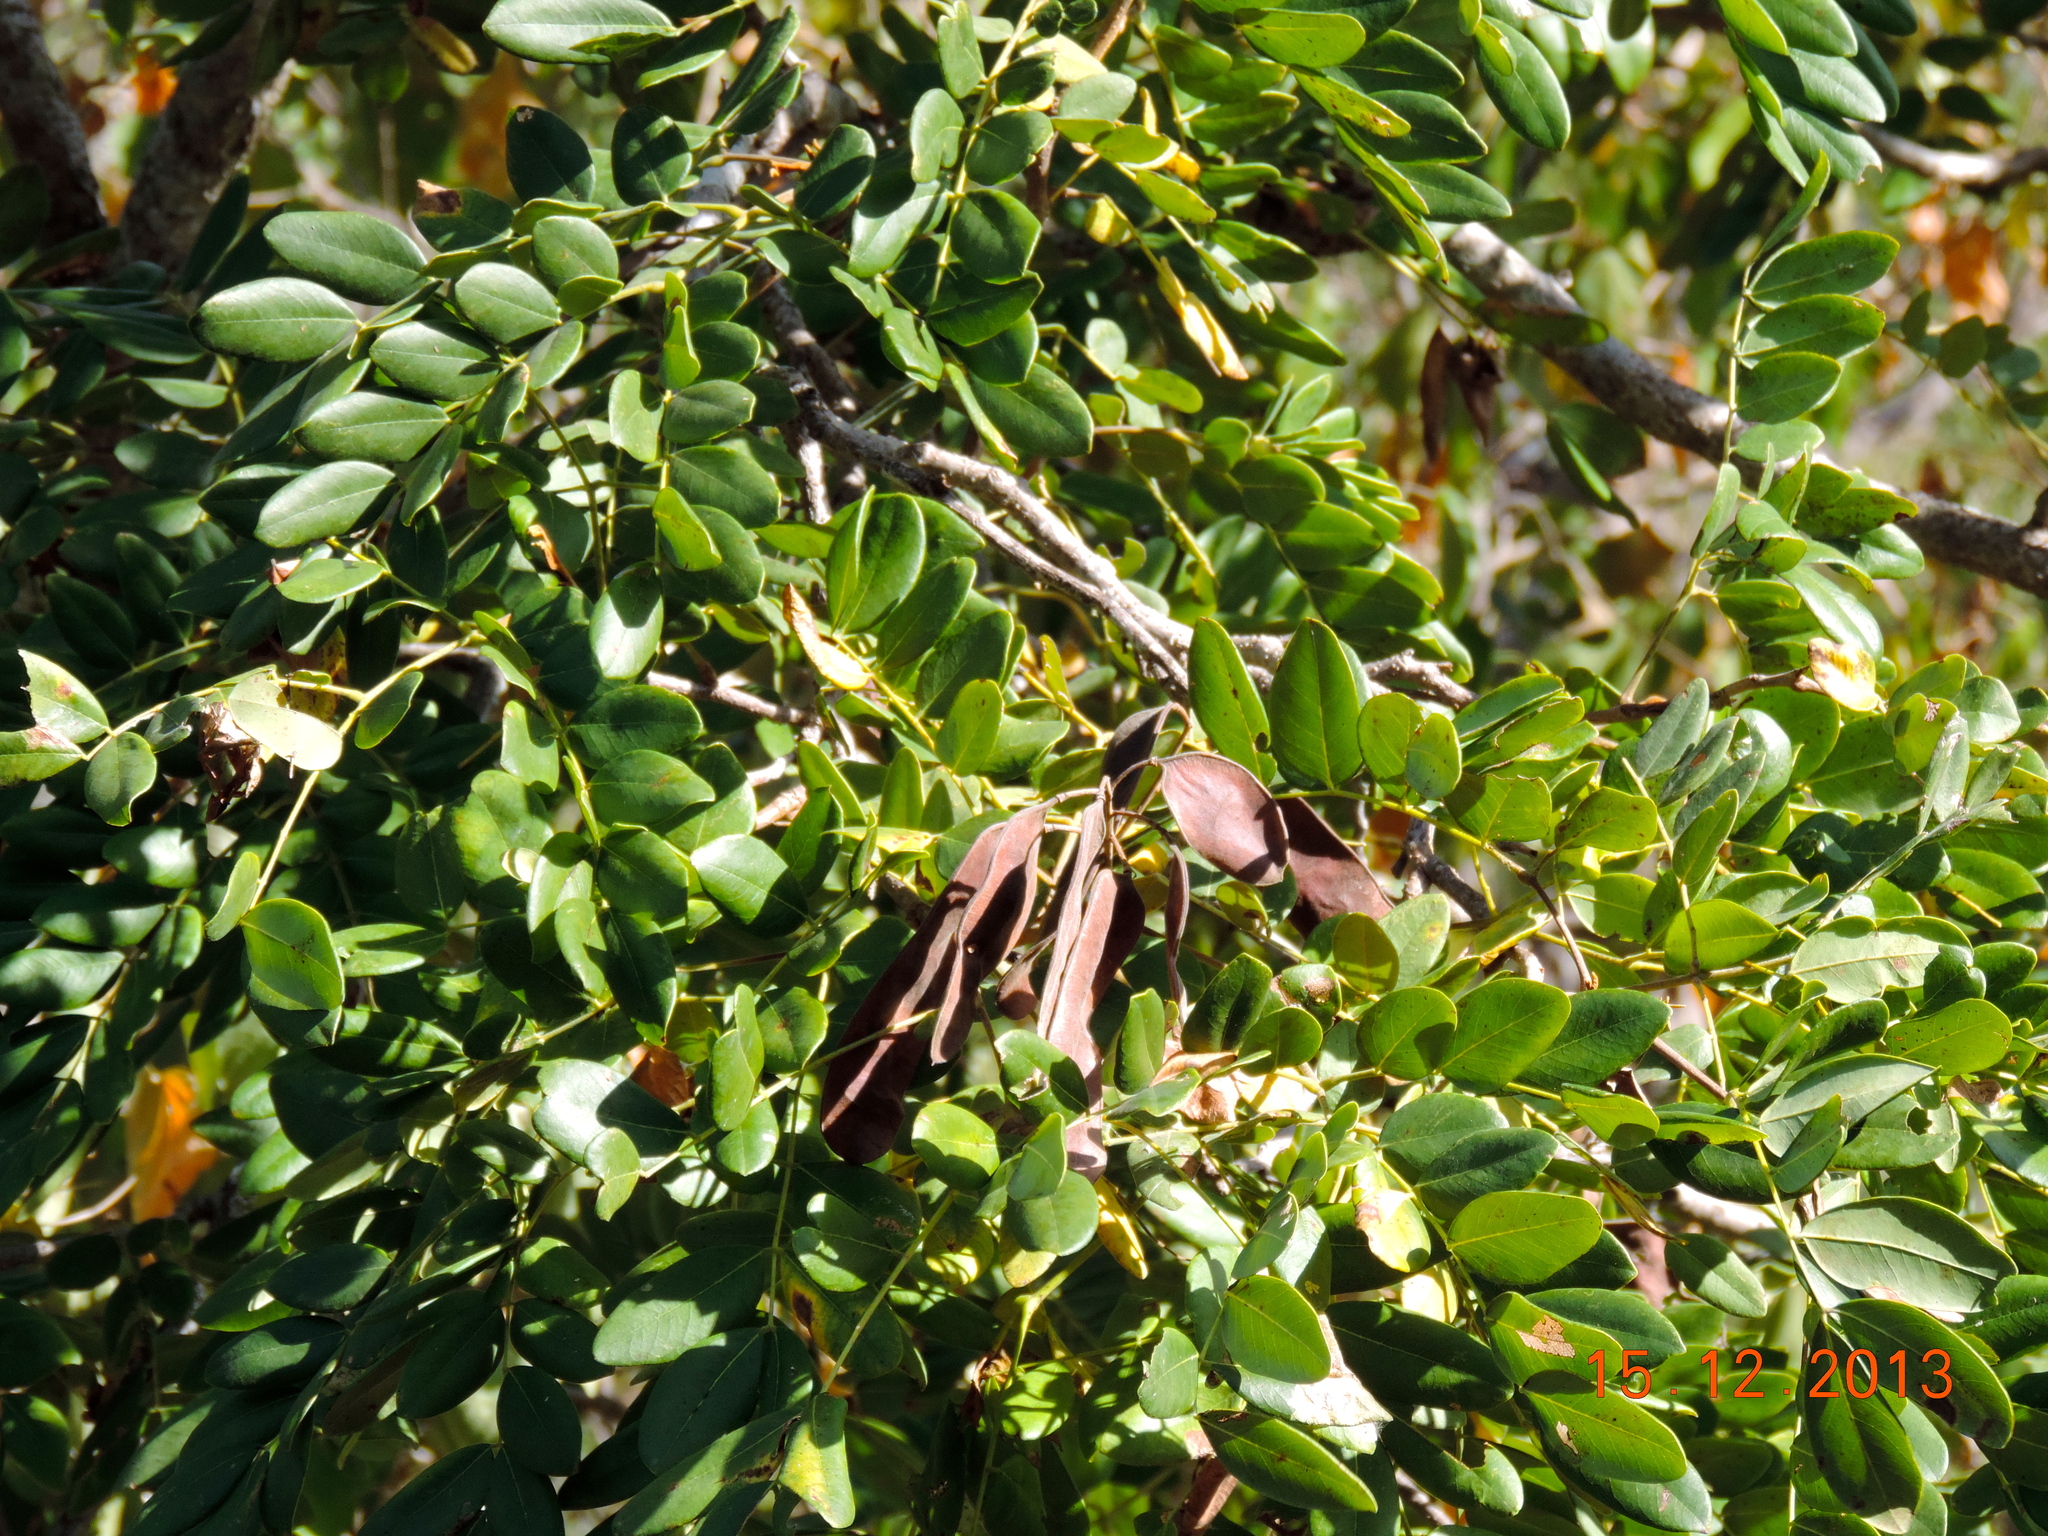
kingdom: Plantae
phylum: Tracheophyta
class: Magnoliopsida
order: Fabales
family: Fabaceae
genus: Coulteria
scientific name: Coulteria platyloba
